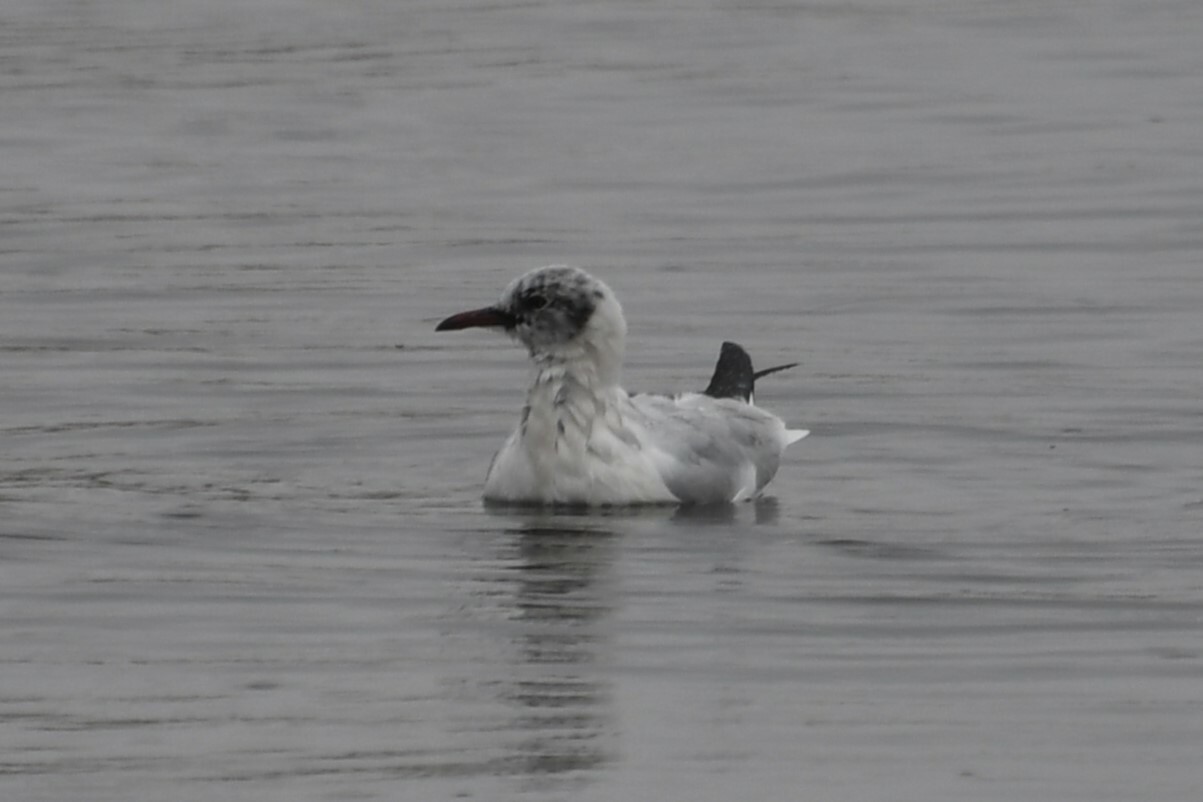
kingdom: Animalia
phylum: Chordata
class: Aves
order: Charadriiformes
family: Laridae
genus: Chroicocephalus
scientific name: Chroicocephalus ridibundus
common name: Black-headed gull
